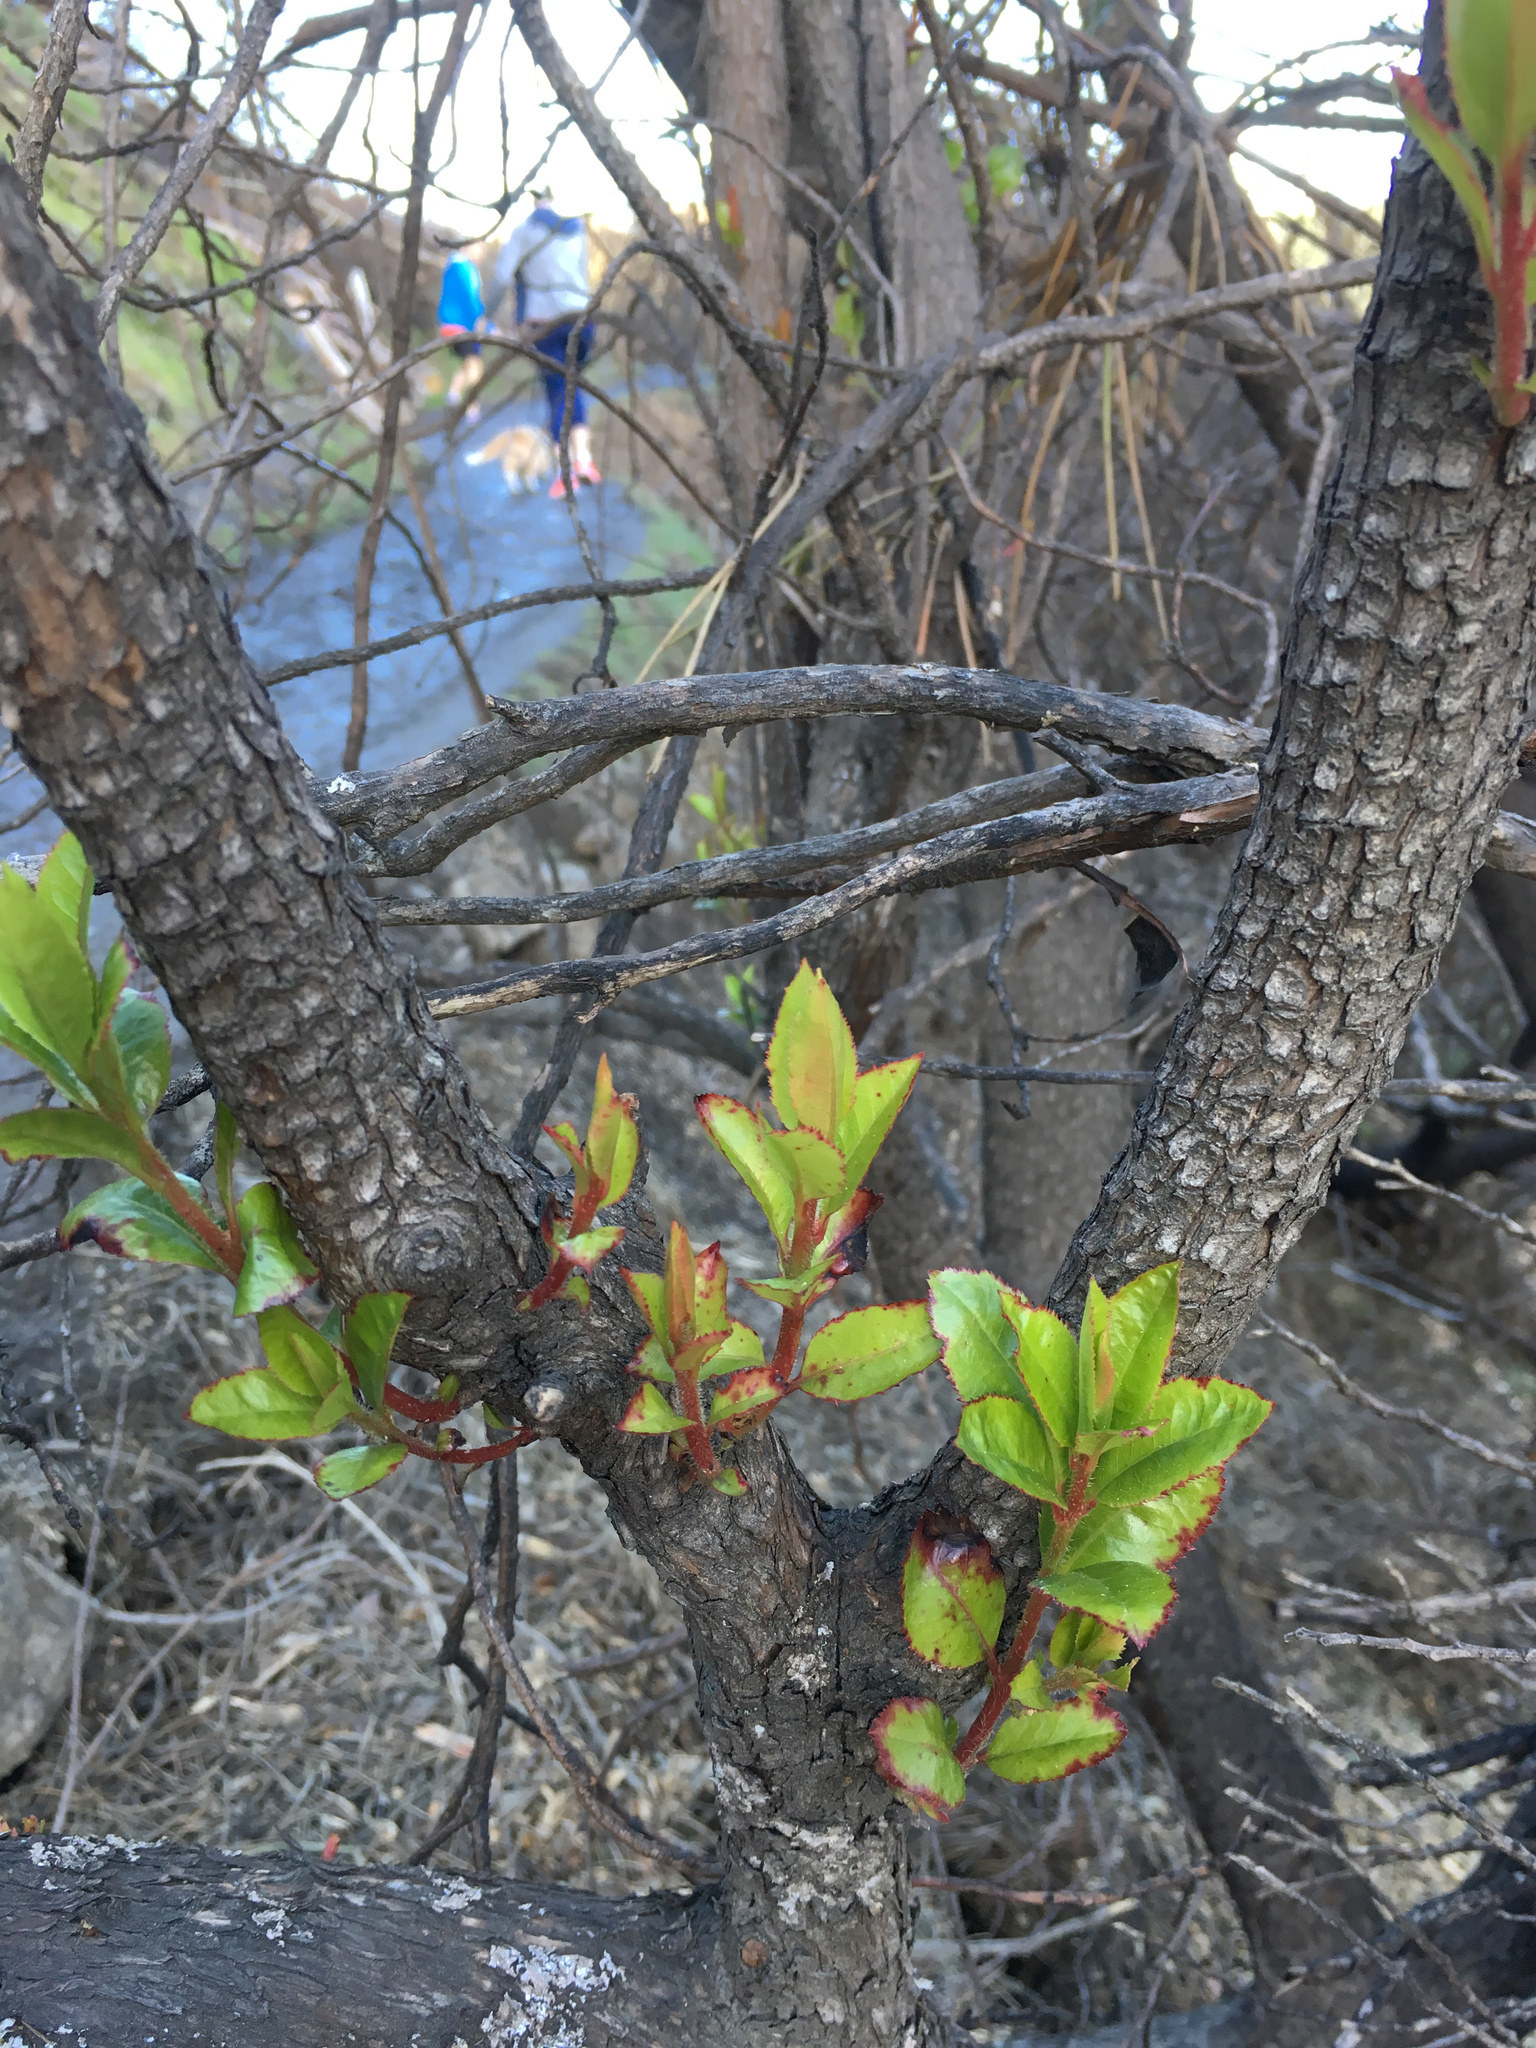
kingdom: Plantae
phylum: Tracheophyta
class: Magnoliopsida
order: Ericales
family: Ericaceae
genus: Arbutus
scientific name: Arbutus unedo
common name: Strawberry-tree
